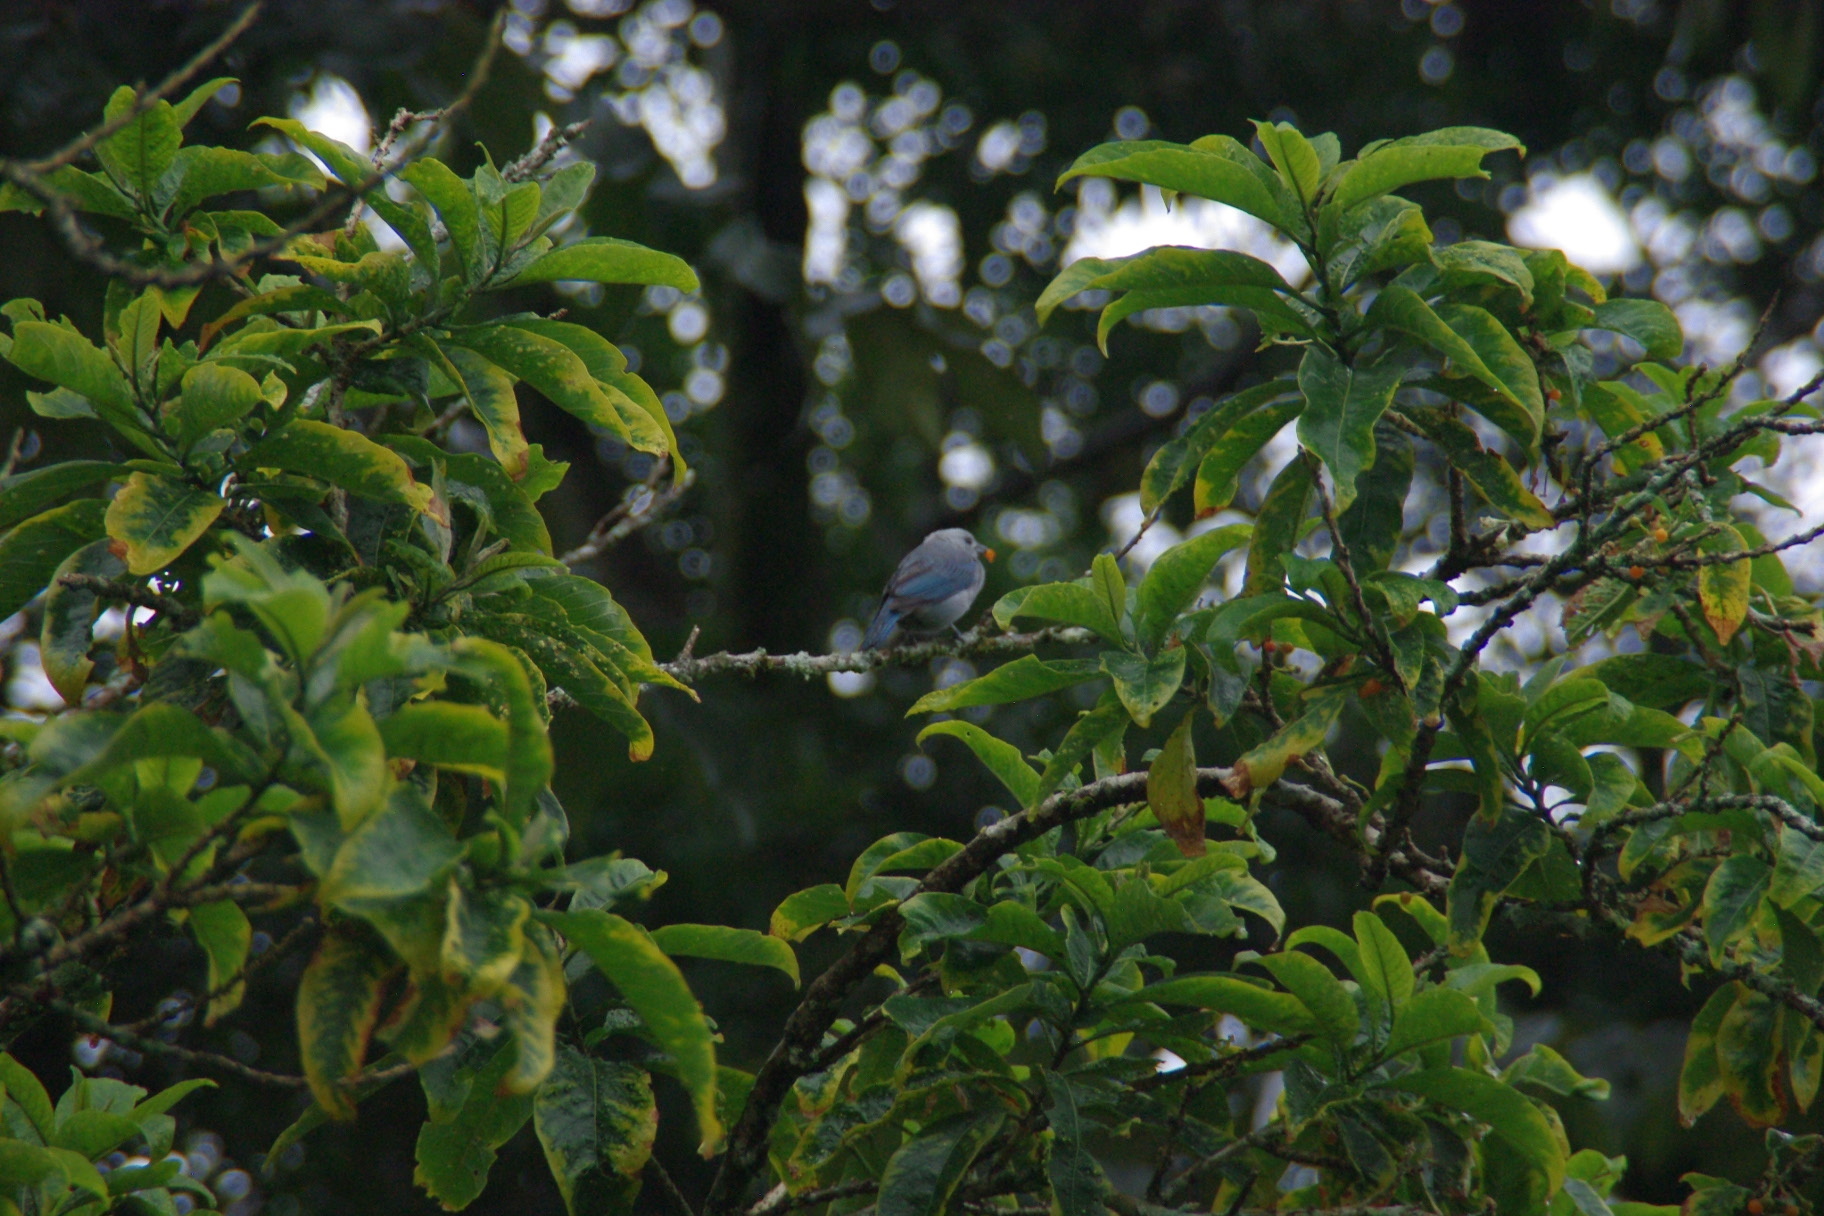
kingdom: Animalia
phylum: Chordata
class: Aves
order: Passeriformes
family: Thraupidae
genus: Thraupis
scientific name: Thraupis episcopus
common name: Blue-grey tanager
